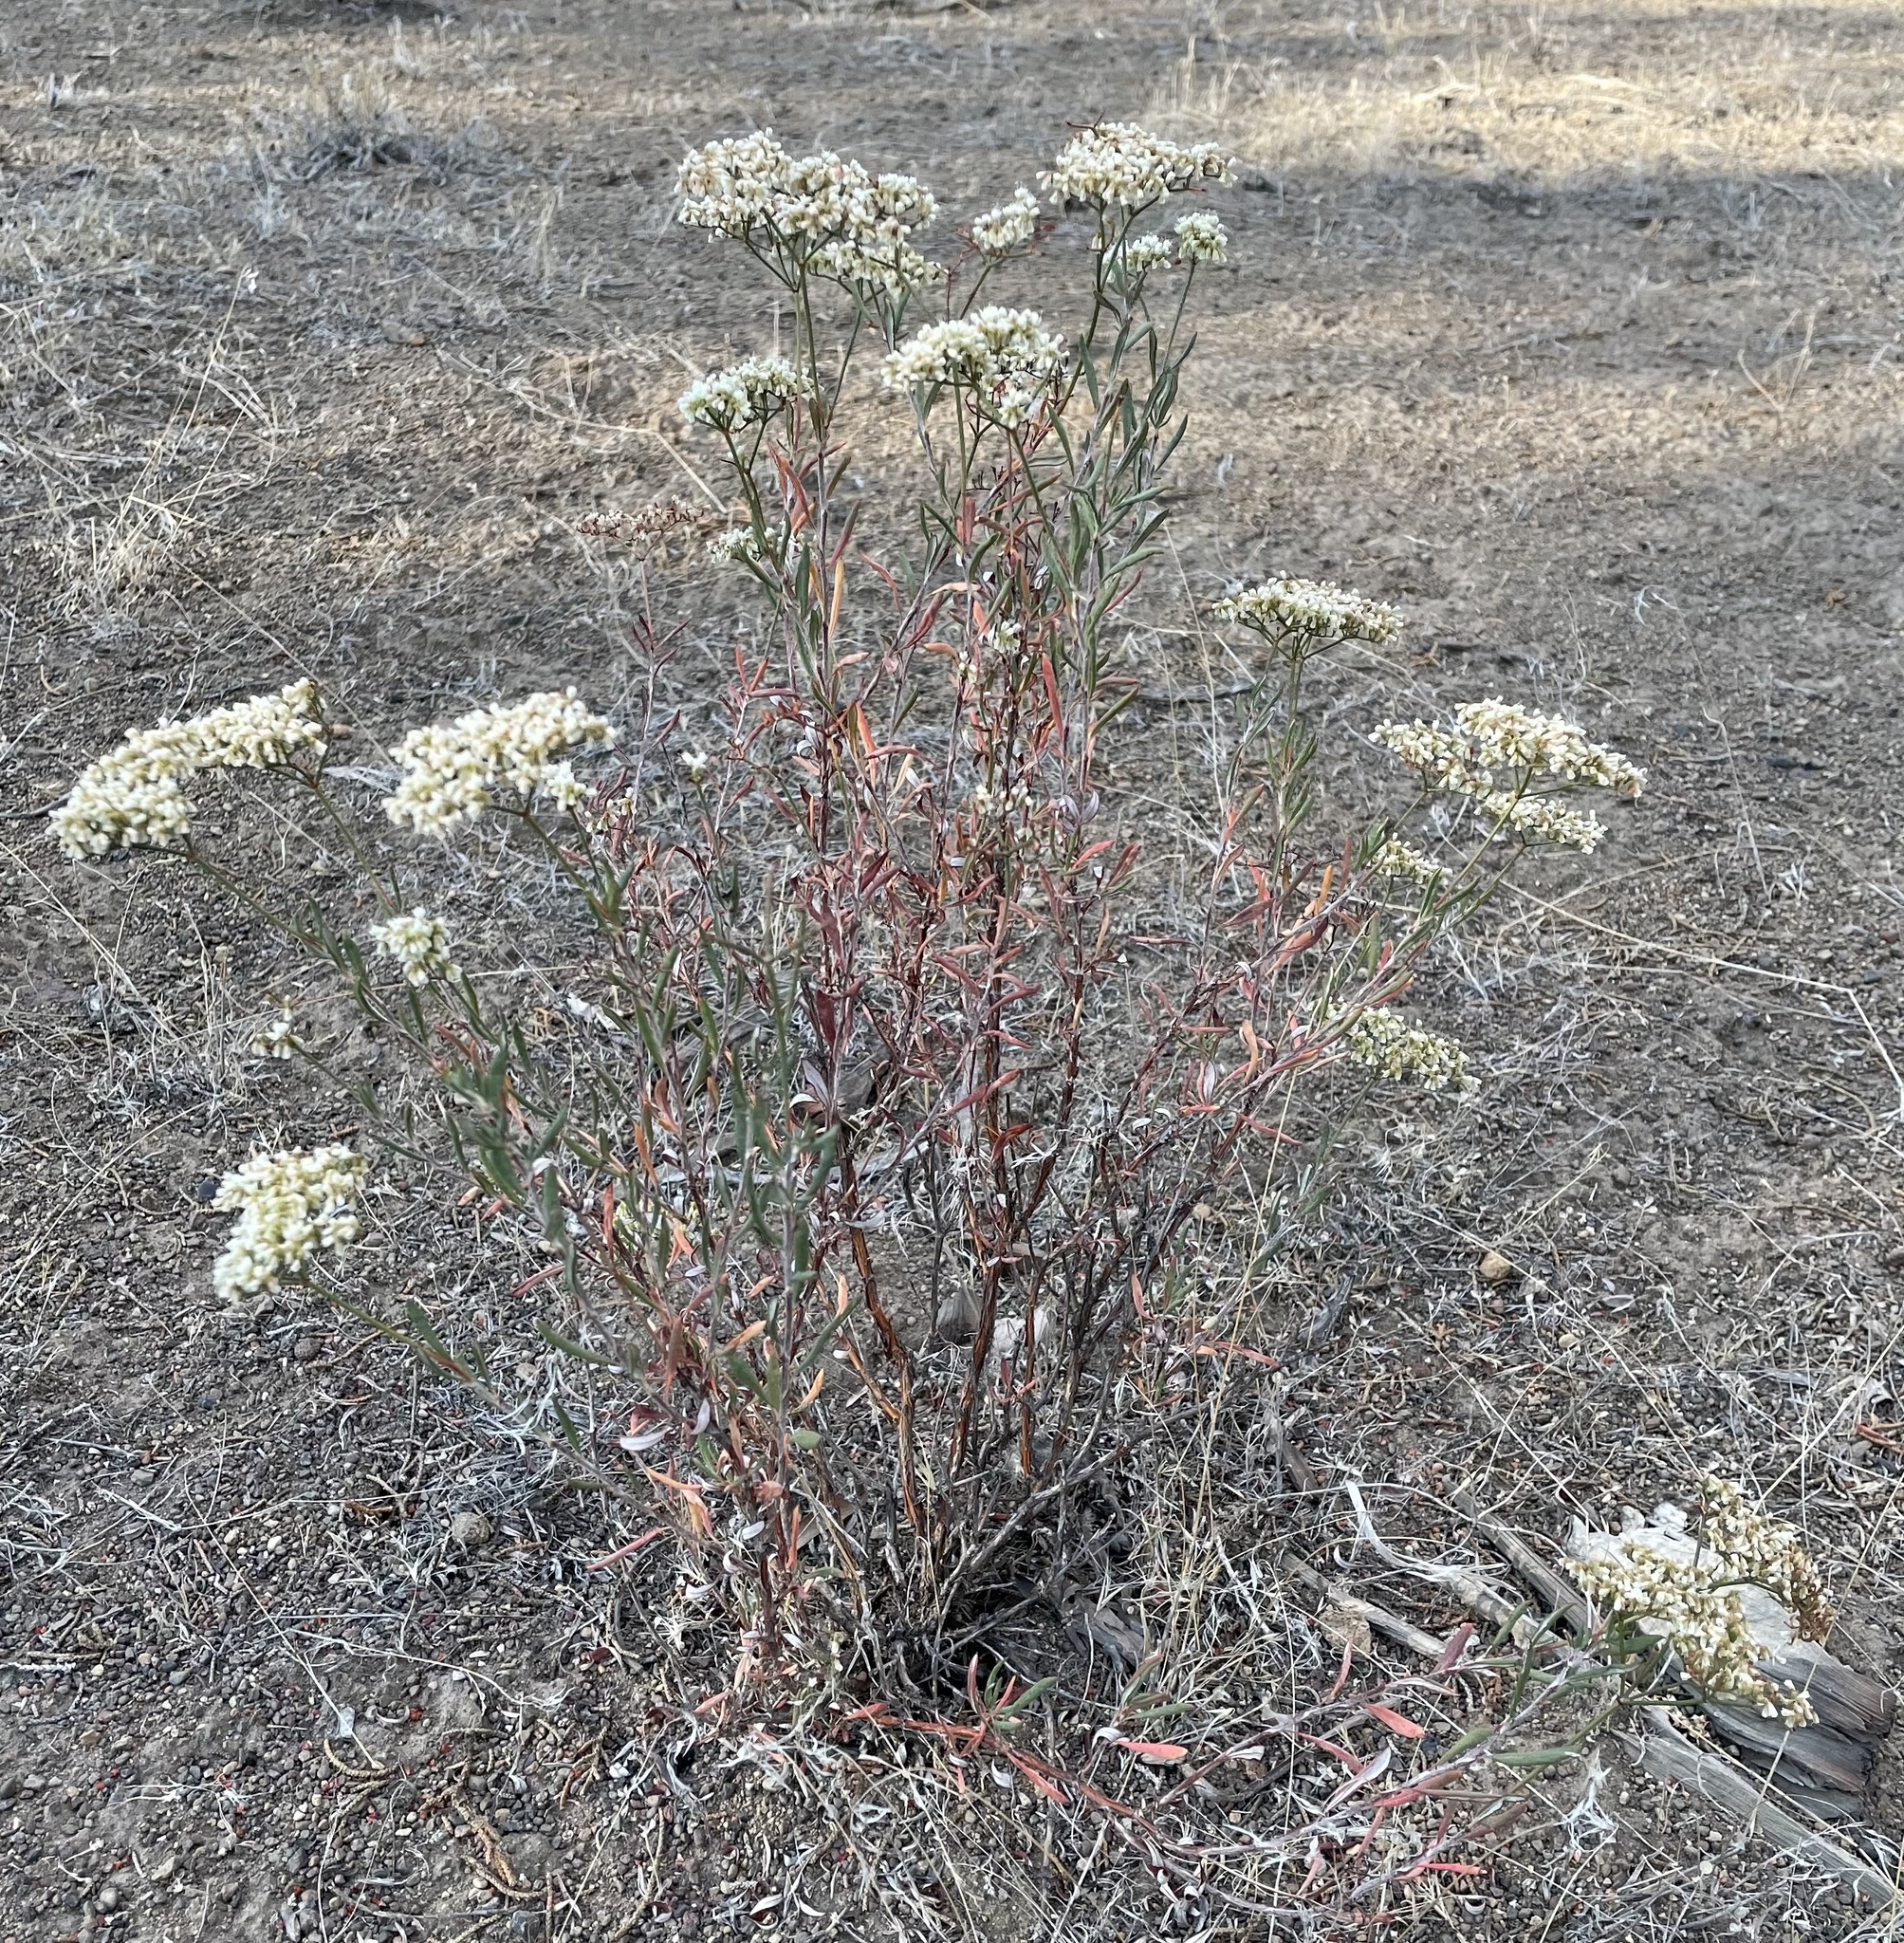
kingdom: Plantae
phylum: Tracheophyta
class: Magnoliopsida
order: Caryophyllales
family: Polygonaceae
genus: Eriogonum
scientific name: Eriogonum microtheca
